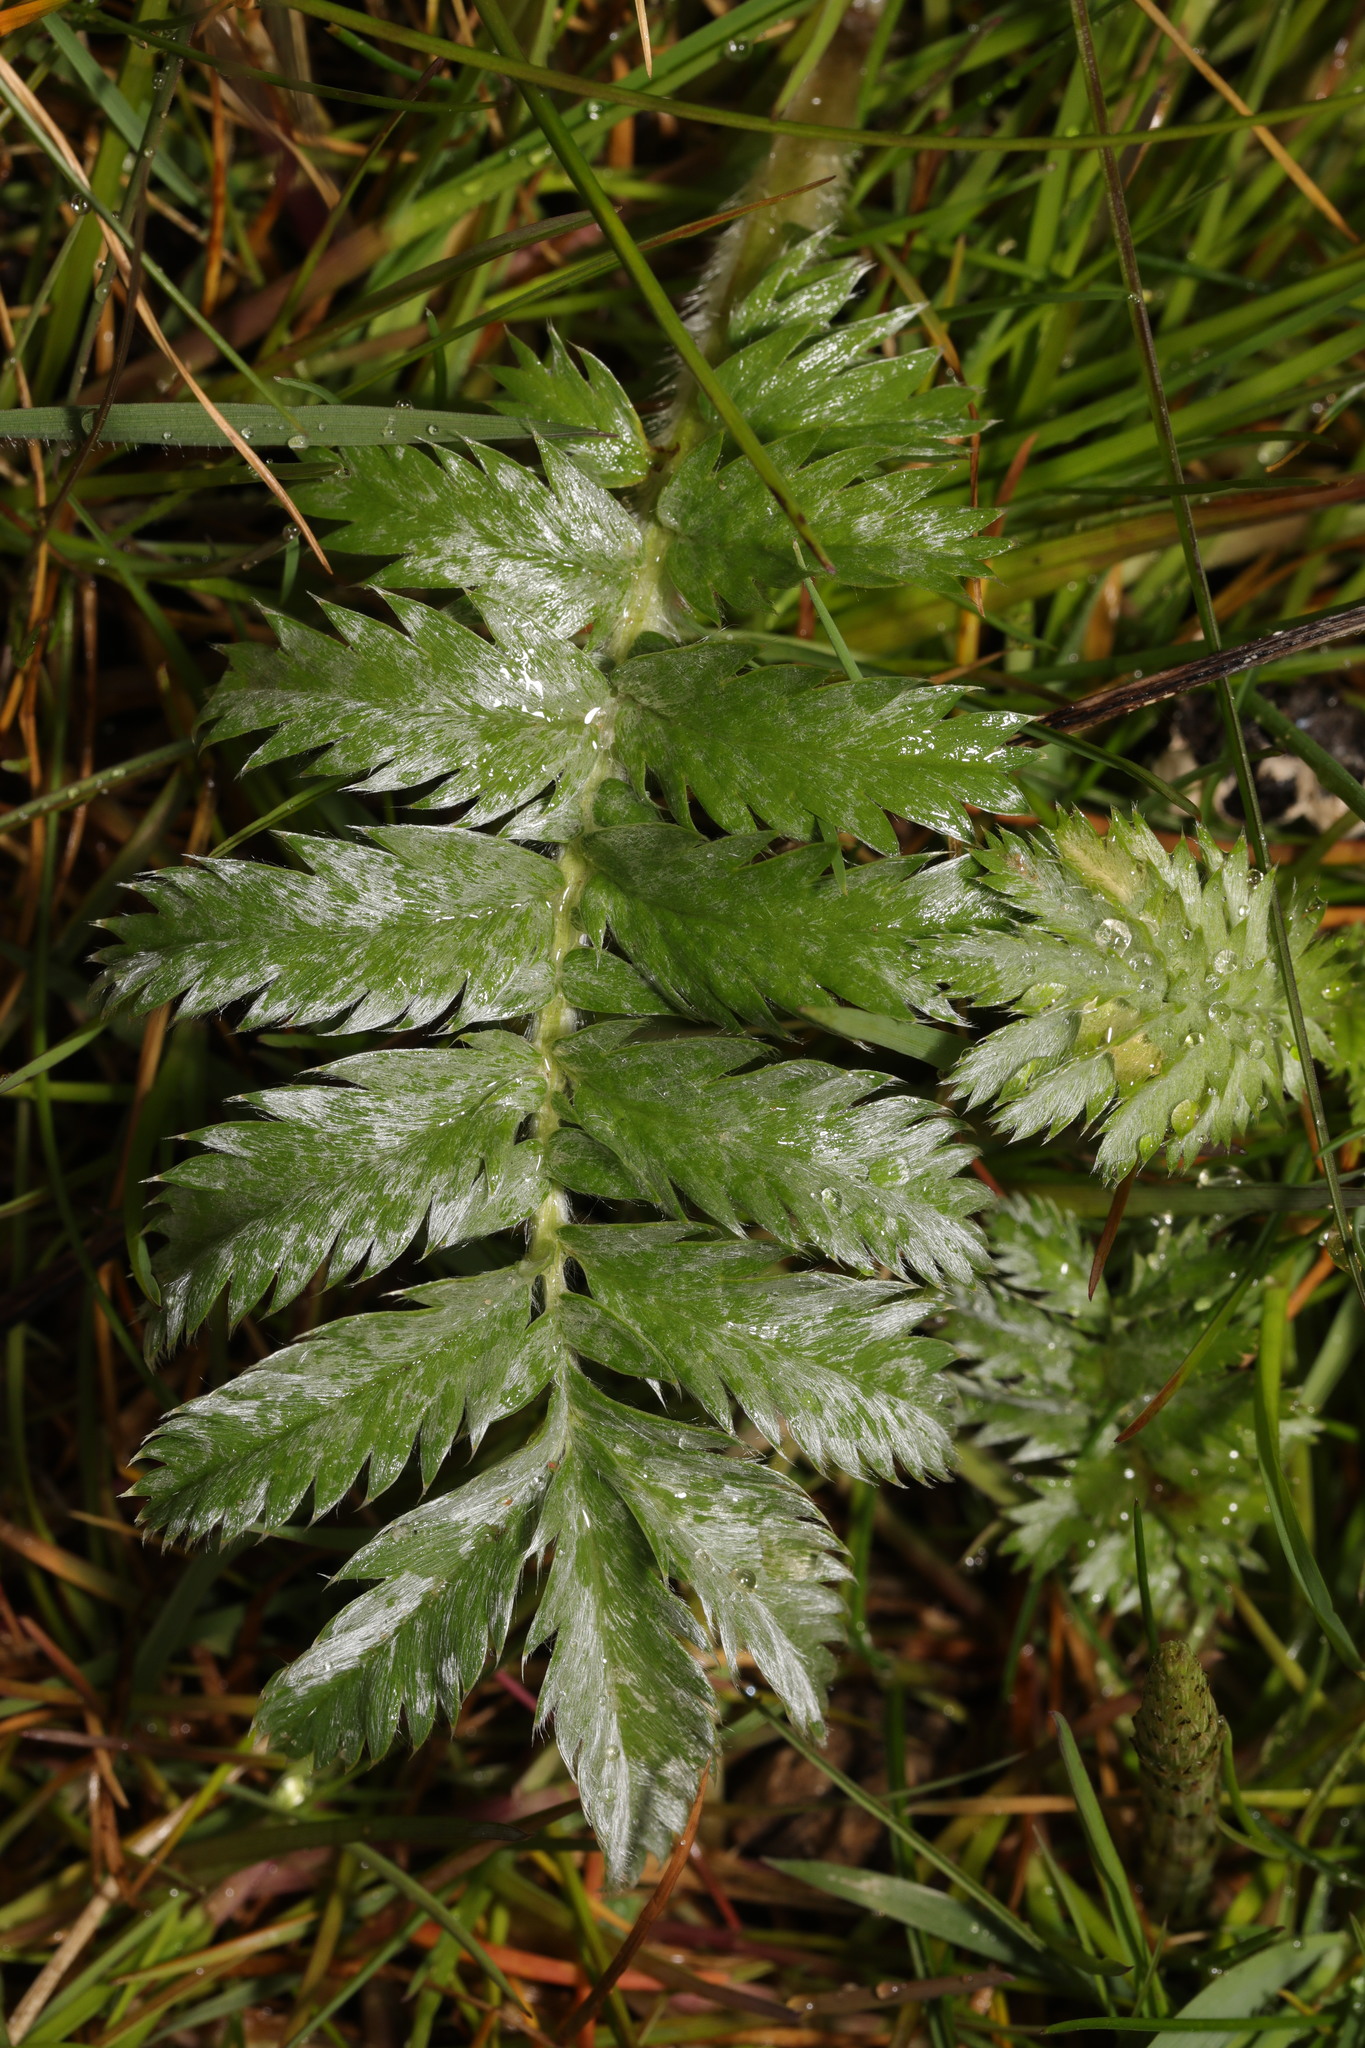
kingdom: Plantae
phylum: Tracheophyta
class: Magnoliopsida
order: Rosales
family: Rosaceae
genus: Argentina
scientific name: Argentina anserina
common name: Common silverweed
